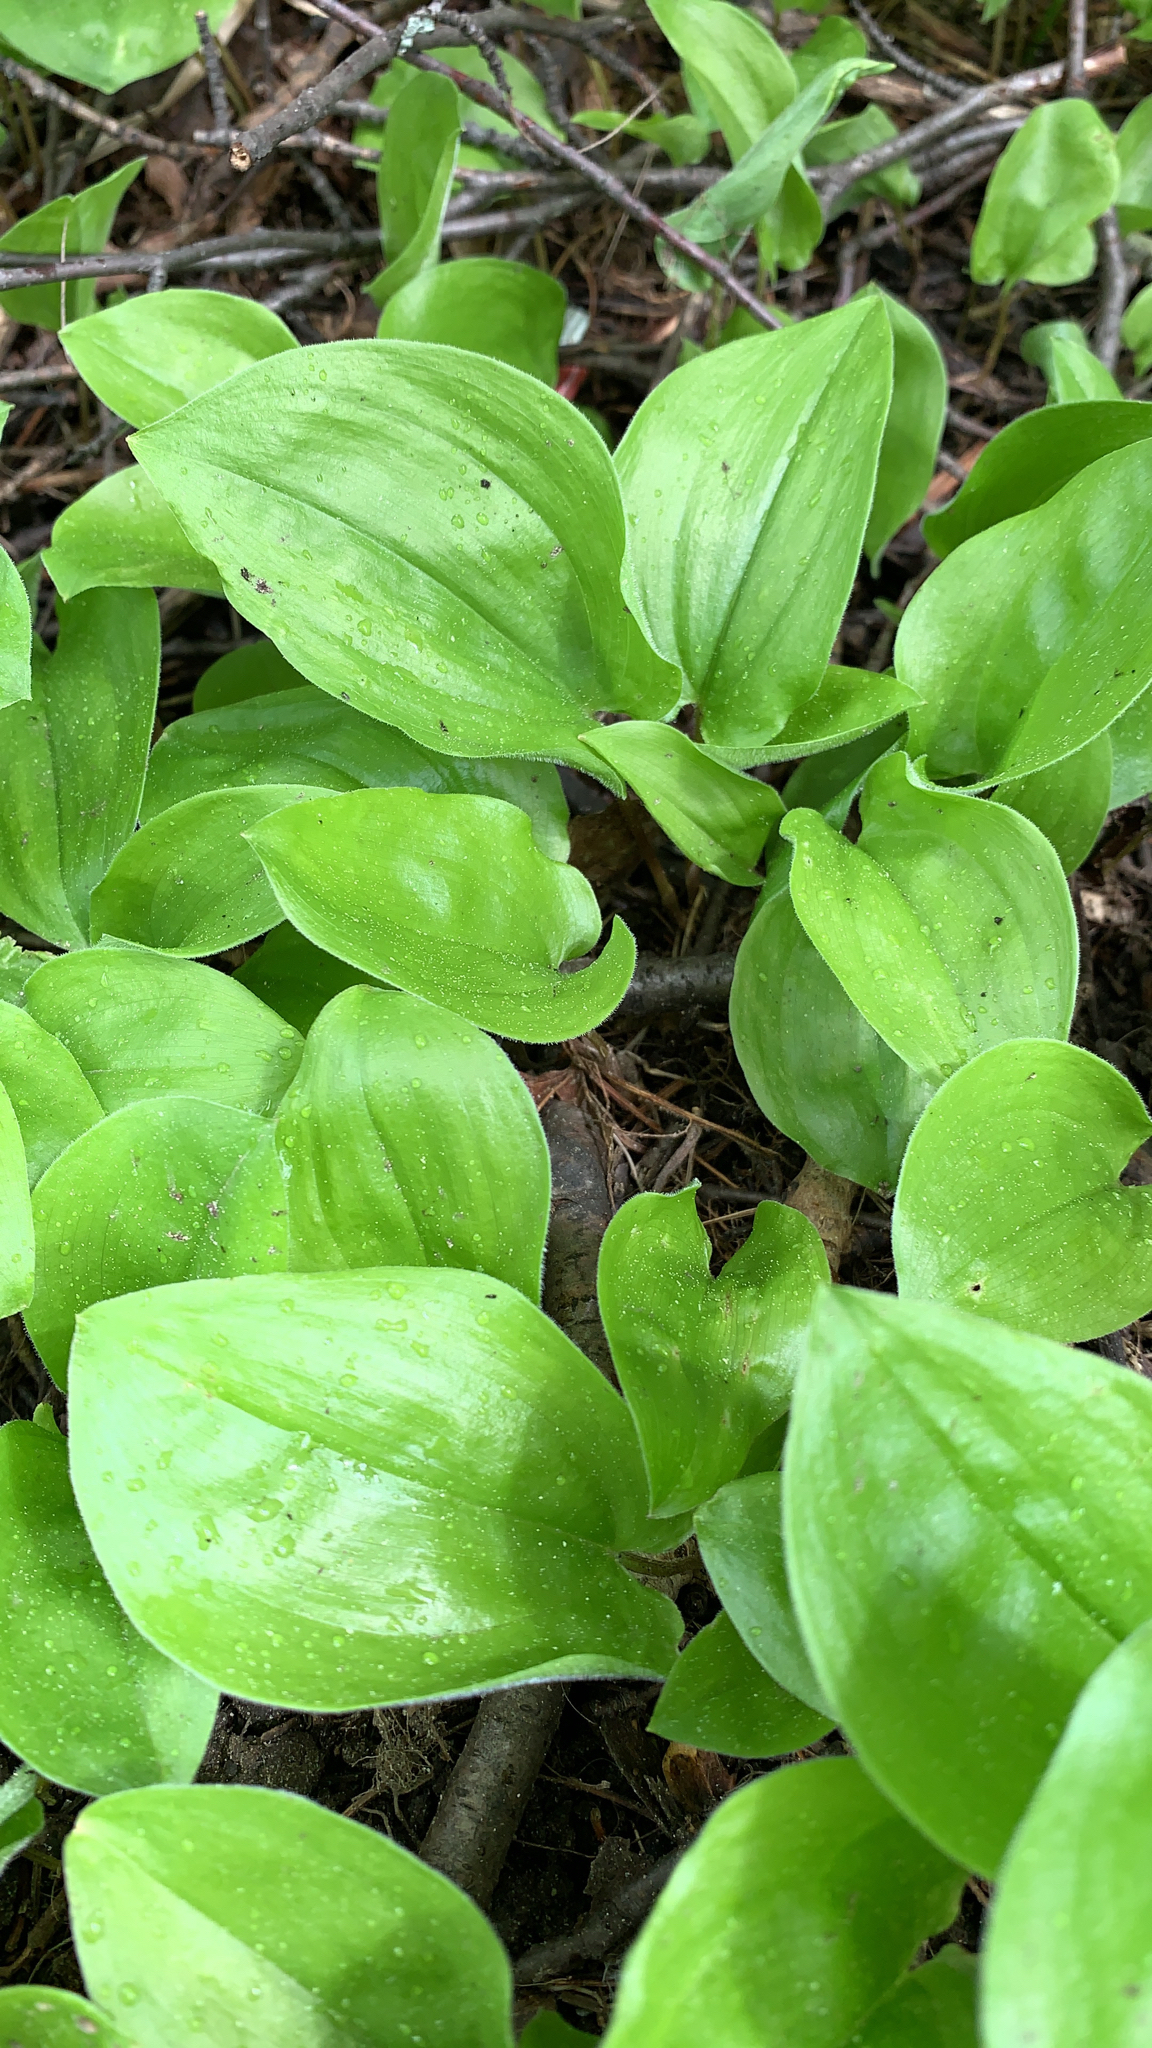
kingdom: Plantae
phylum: Tracheophyta
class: Liliopsida
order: Asparagales
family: Asparagaceae
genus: Maianthemum
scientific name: Maianthemum canadense
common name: False lily-of-the-valley
